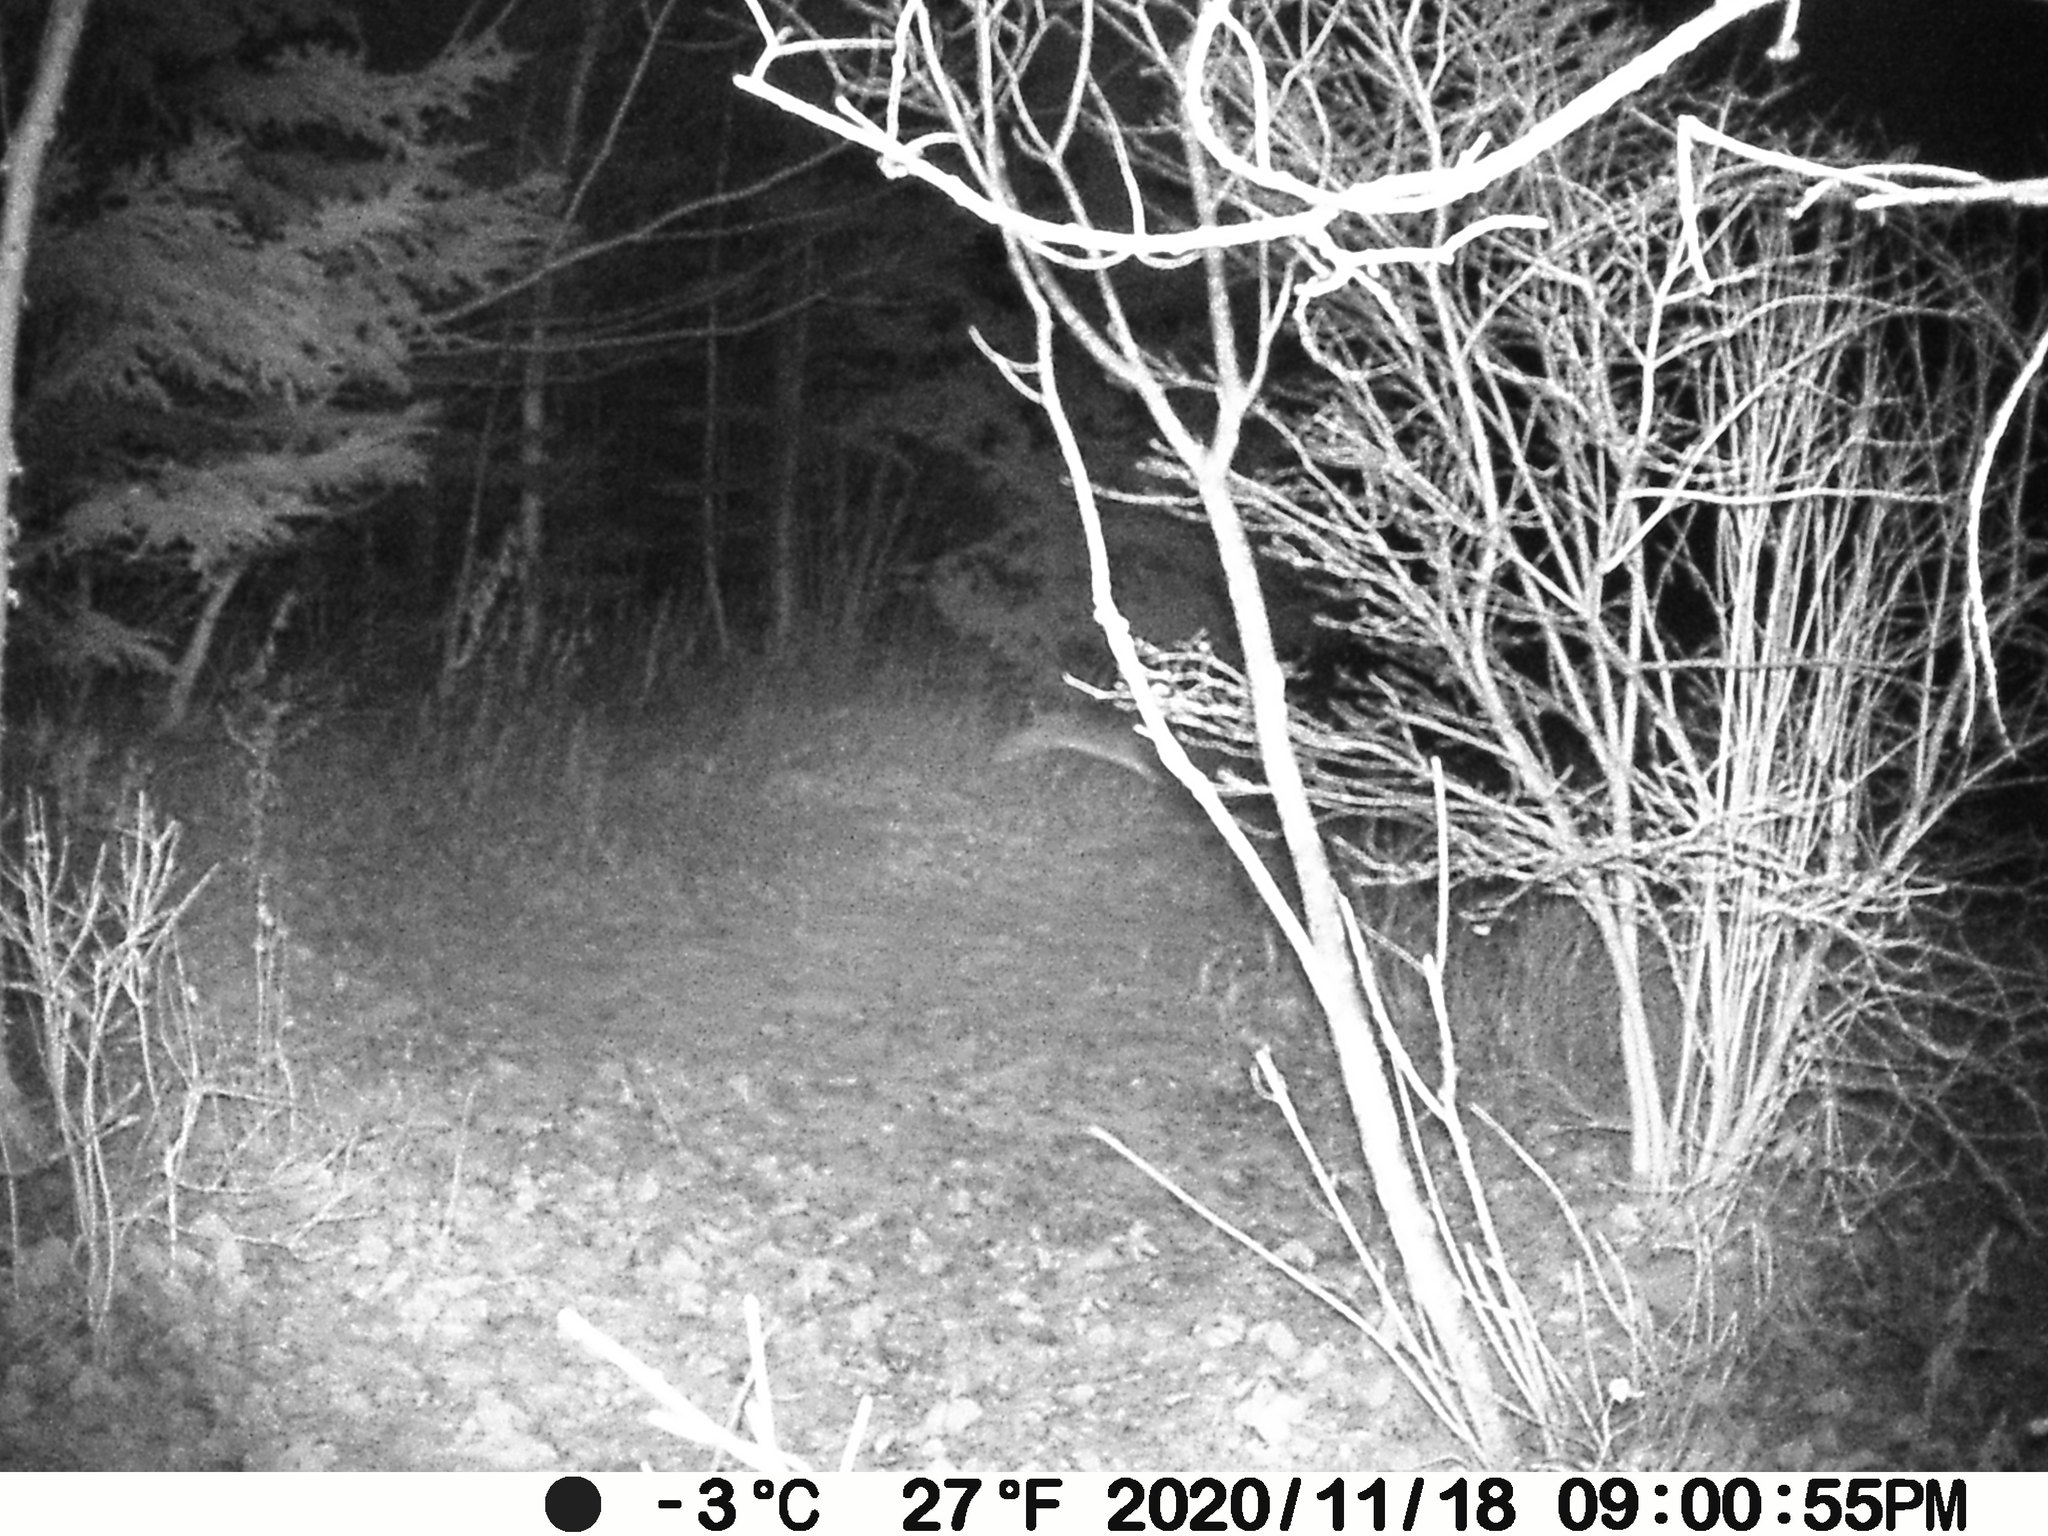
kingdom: Animalia
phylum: Chordata
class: Mammalia
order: Lagomorpha
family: Leporidae
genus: Lepus
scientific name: Lepus americanus
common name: Snowshoe hare
